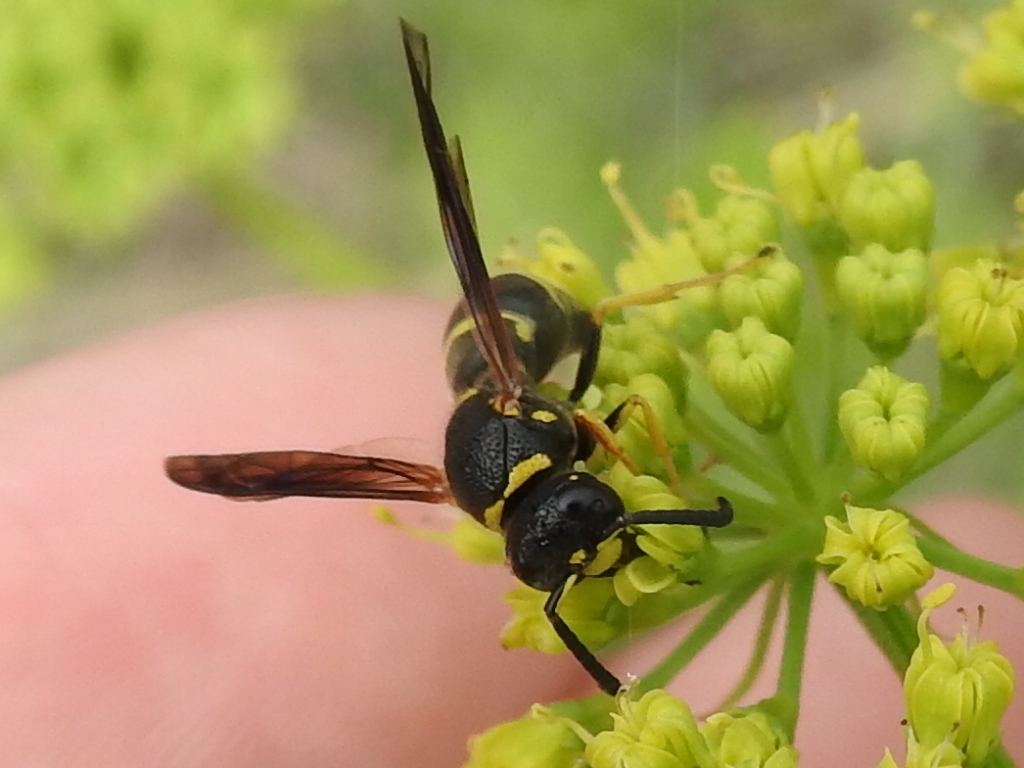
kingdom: Animalia
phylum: Arthropoda
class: Insecta
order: Hymenoptera
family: Eumenidae
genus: Euodynerus
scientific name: Euodynerus foraminatus
